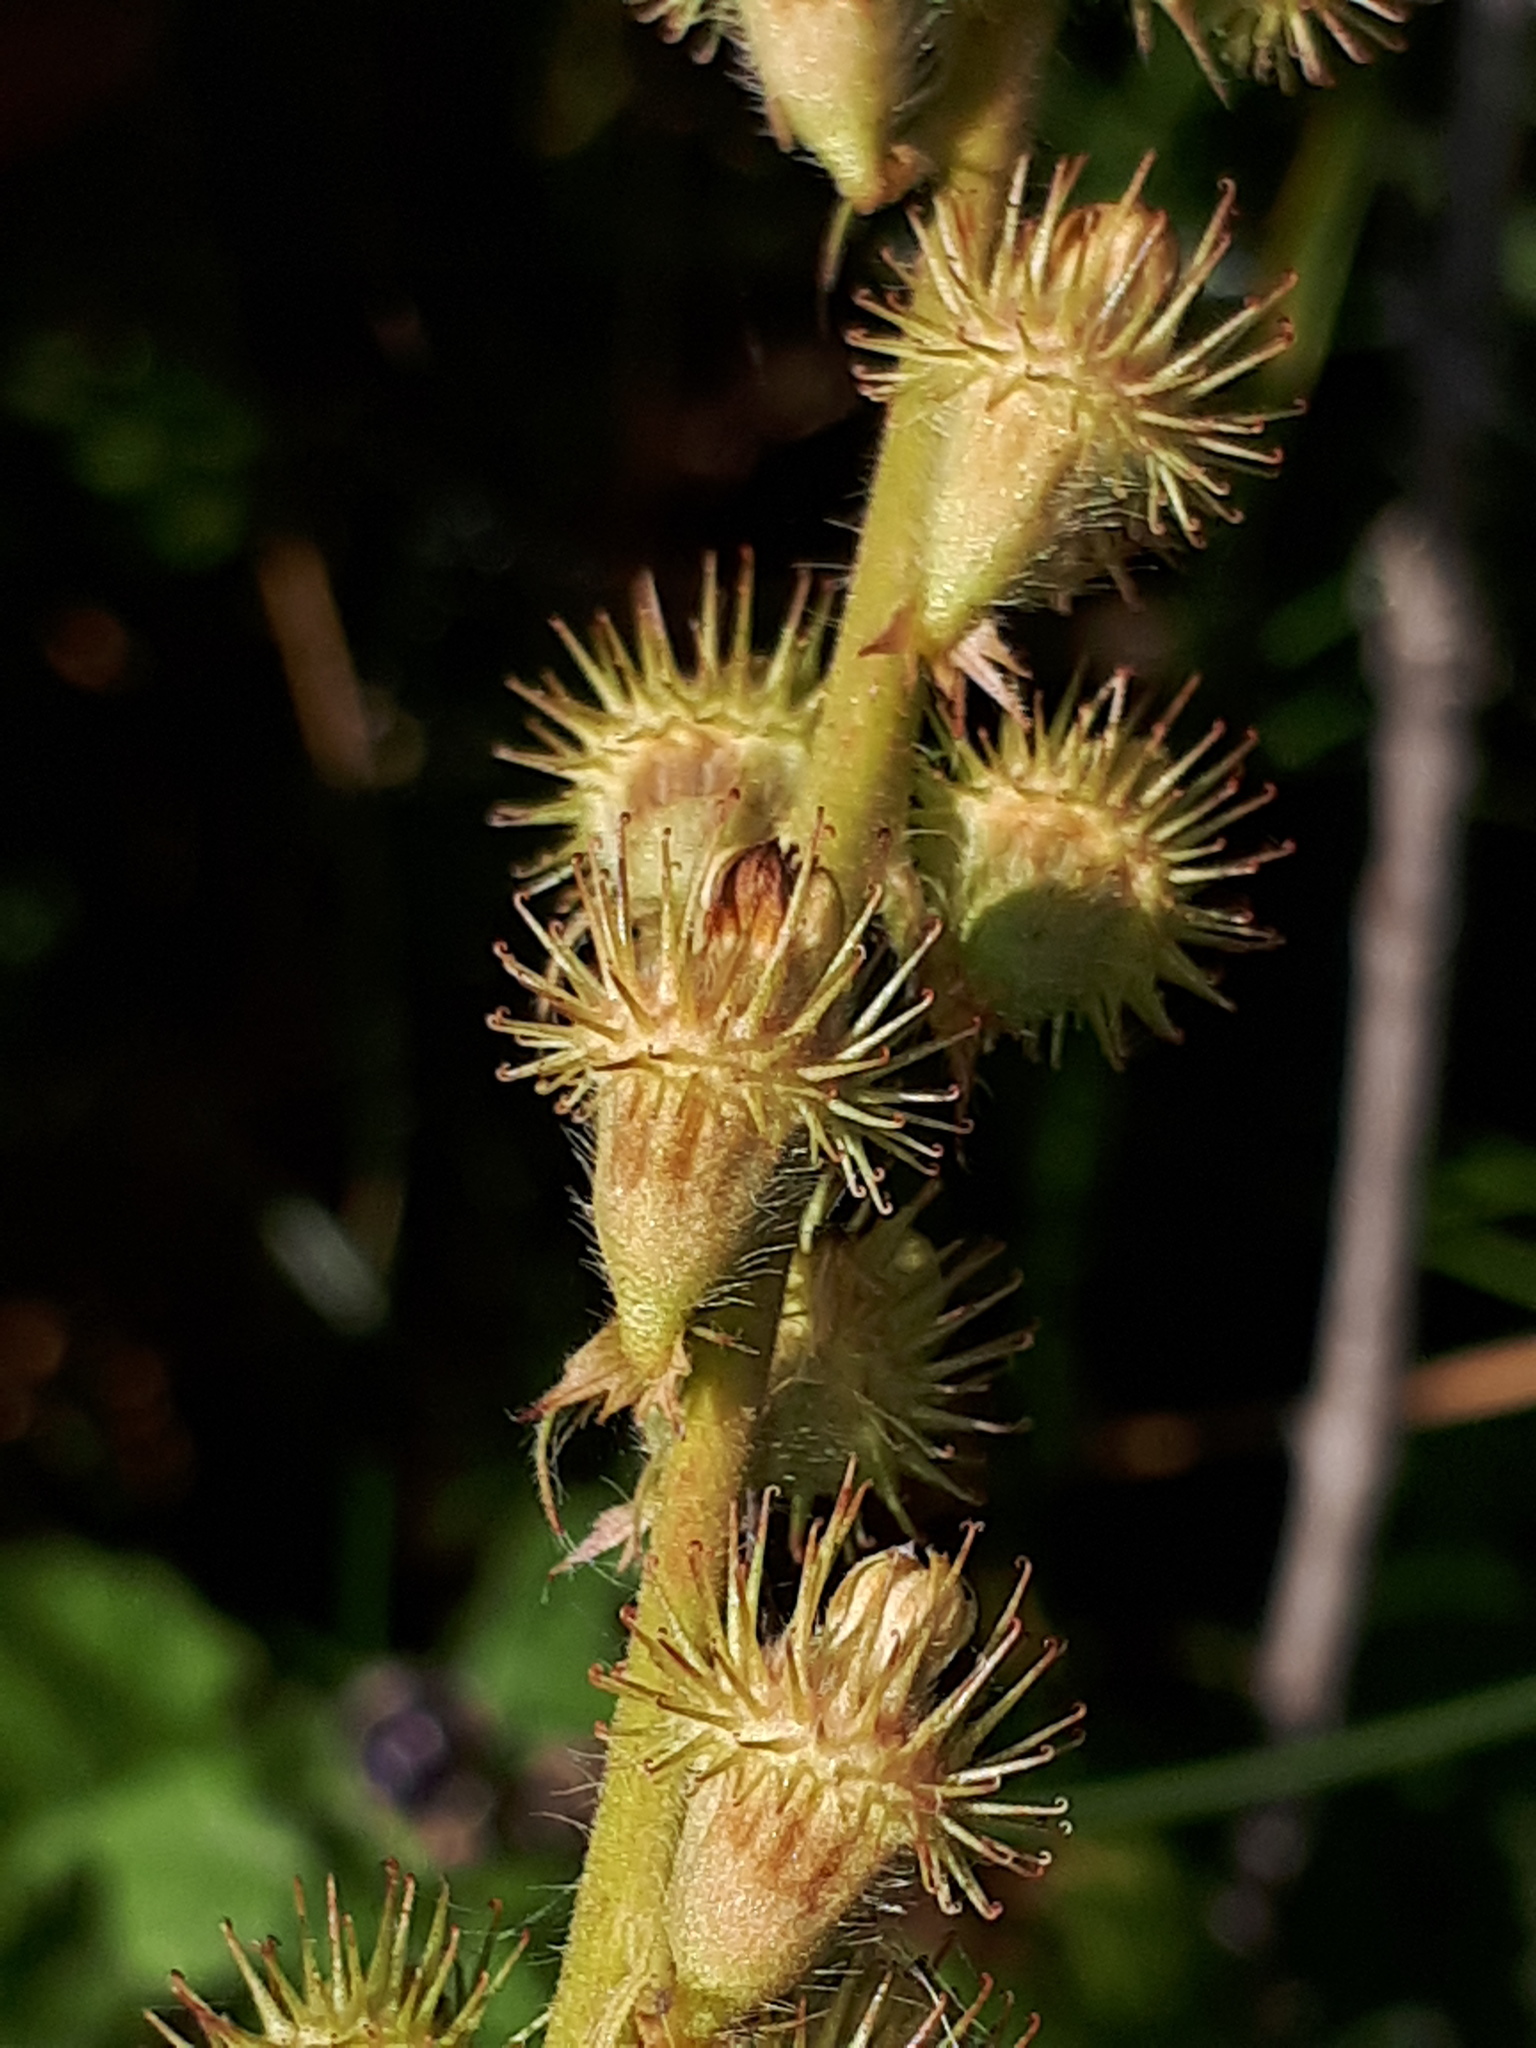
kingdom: Plantae
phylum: Tracheophyta
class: Magnoliopsida
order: Rosales
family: Rosaceae
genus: Agrimonia
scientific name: Agrimonia procera
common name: Fragrant agrimony
